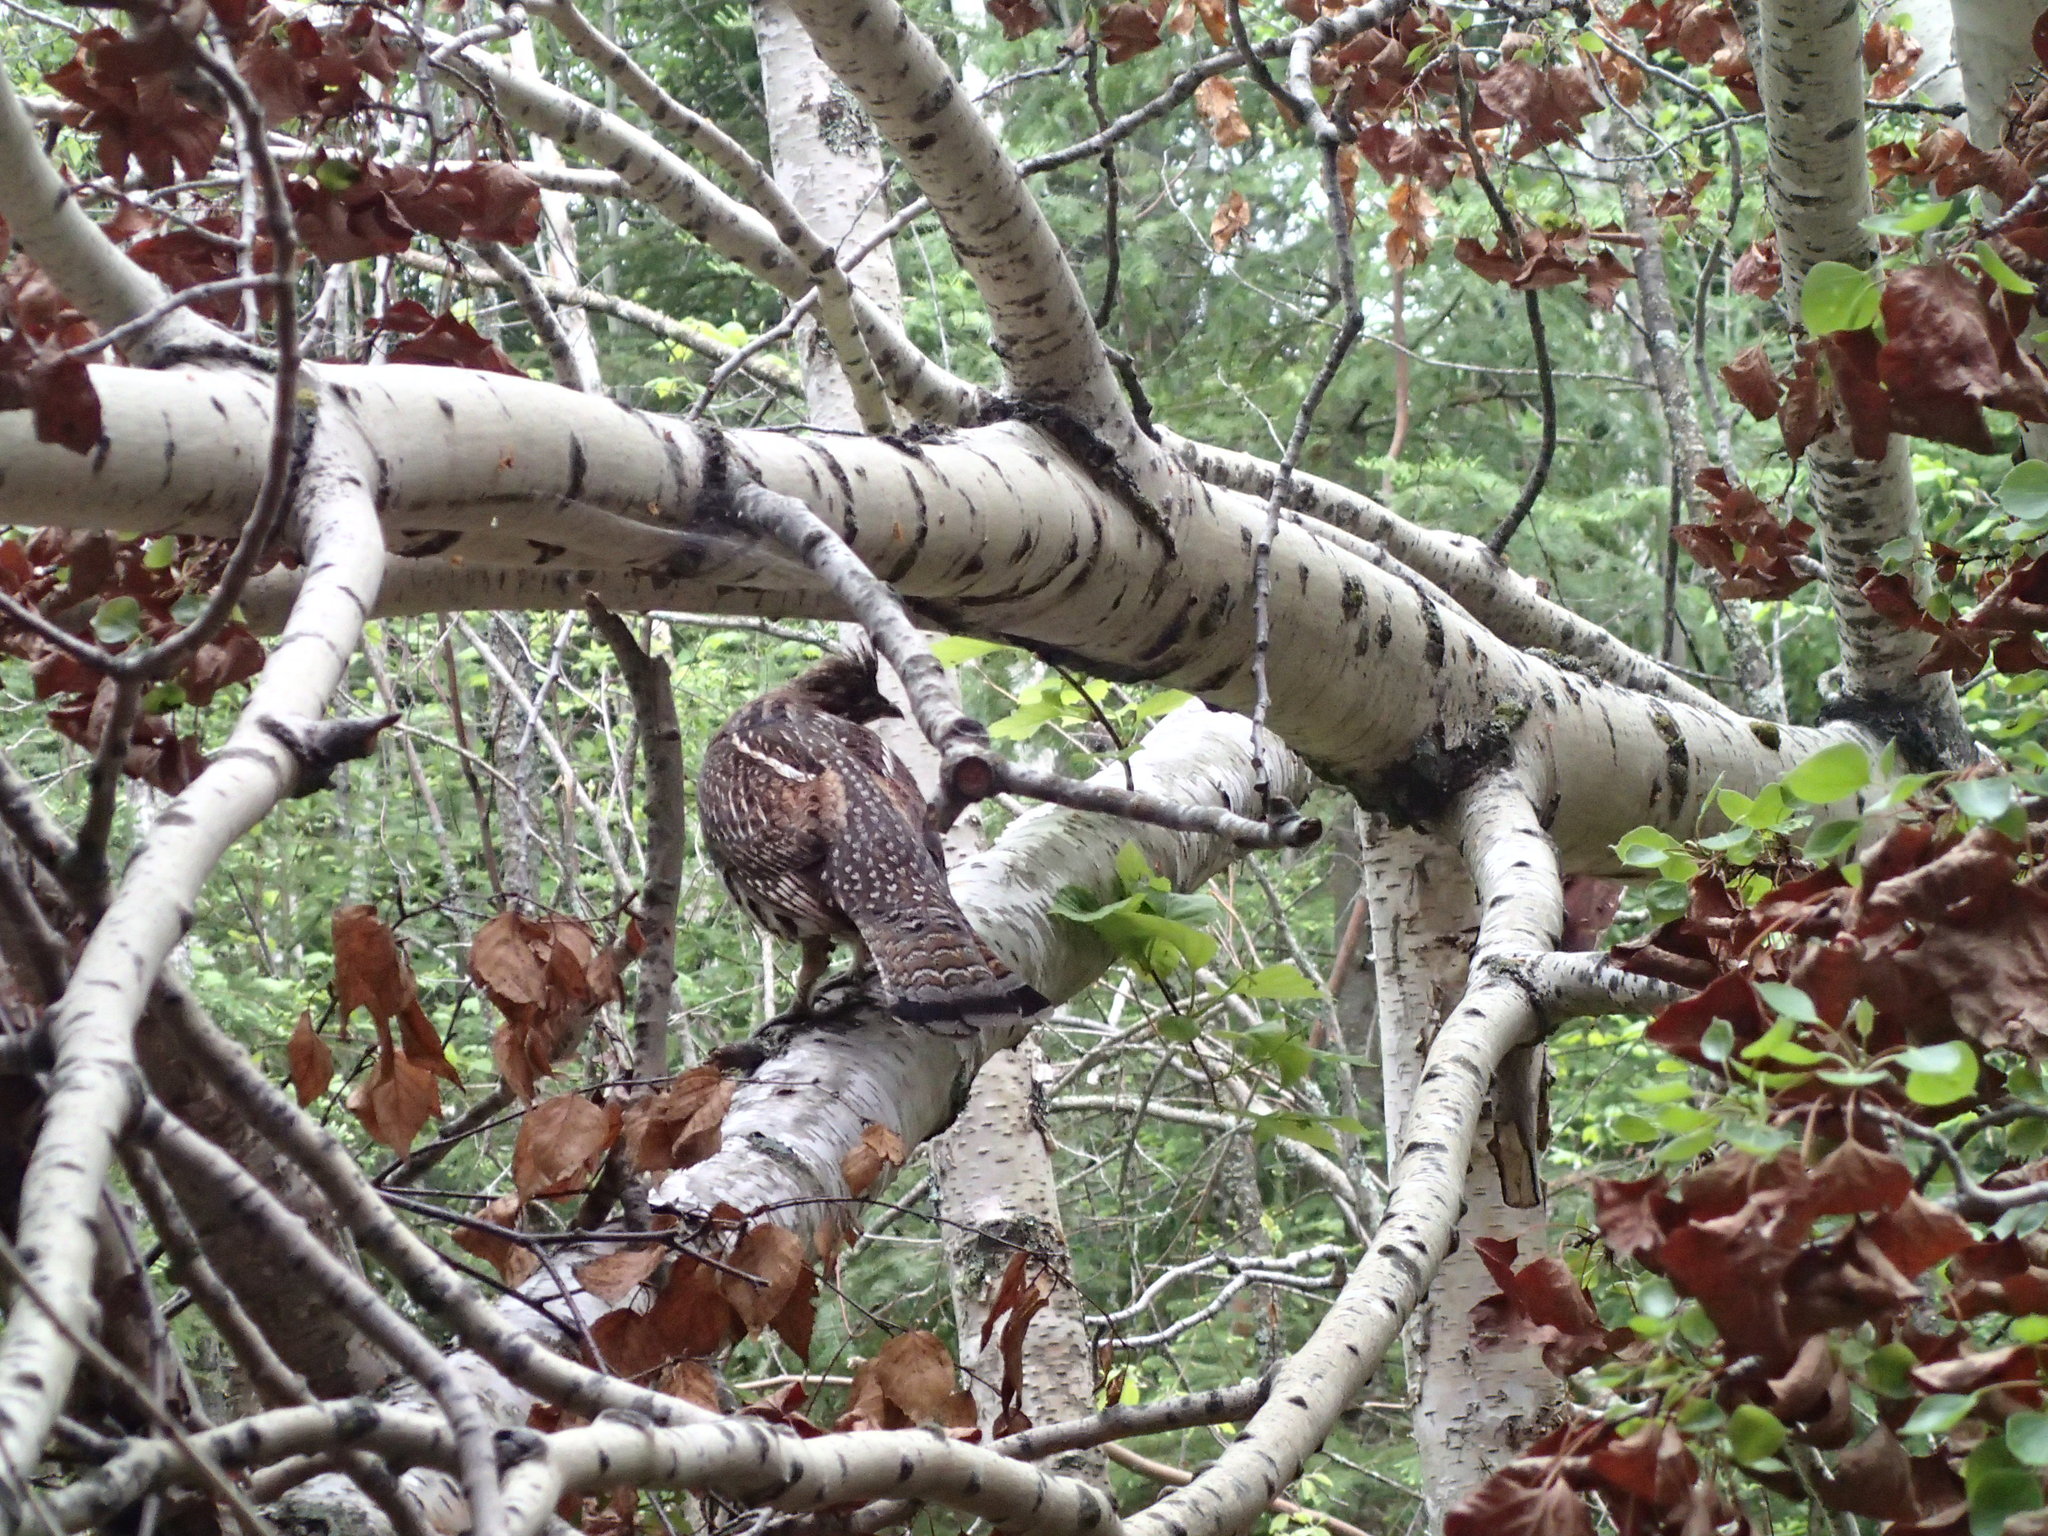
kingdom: Animalia
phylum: Chordata
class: Aves
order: Galliformes
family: Phasianidae
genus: Bonasa
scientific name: Bonasa umbellus
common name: Ruffed grouse
